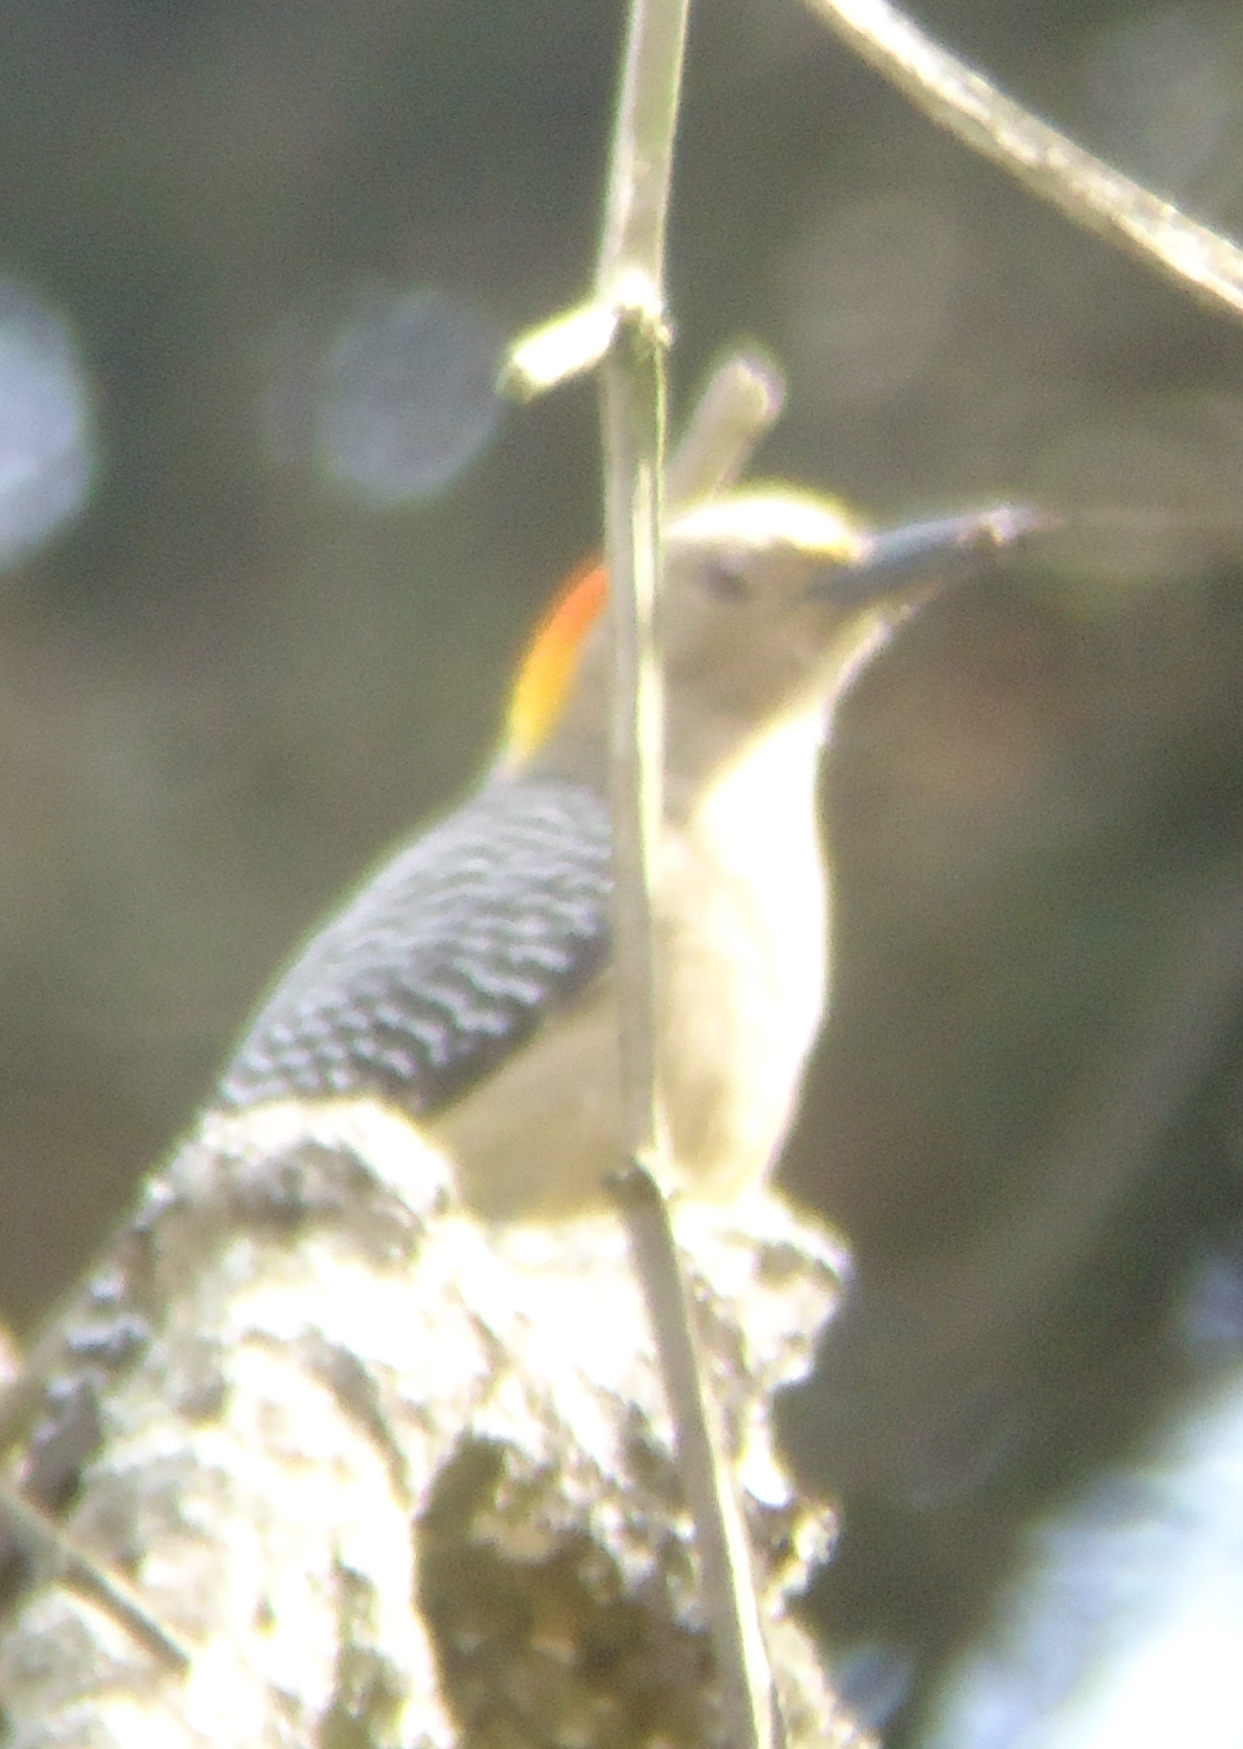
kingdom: Animalia
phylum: Chordata
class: Aves
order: Piciformes
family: Picidae
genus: Melanerpes
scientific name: Melanerpes santacruzi
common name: Velasquez's woodpecker
